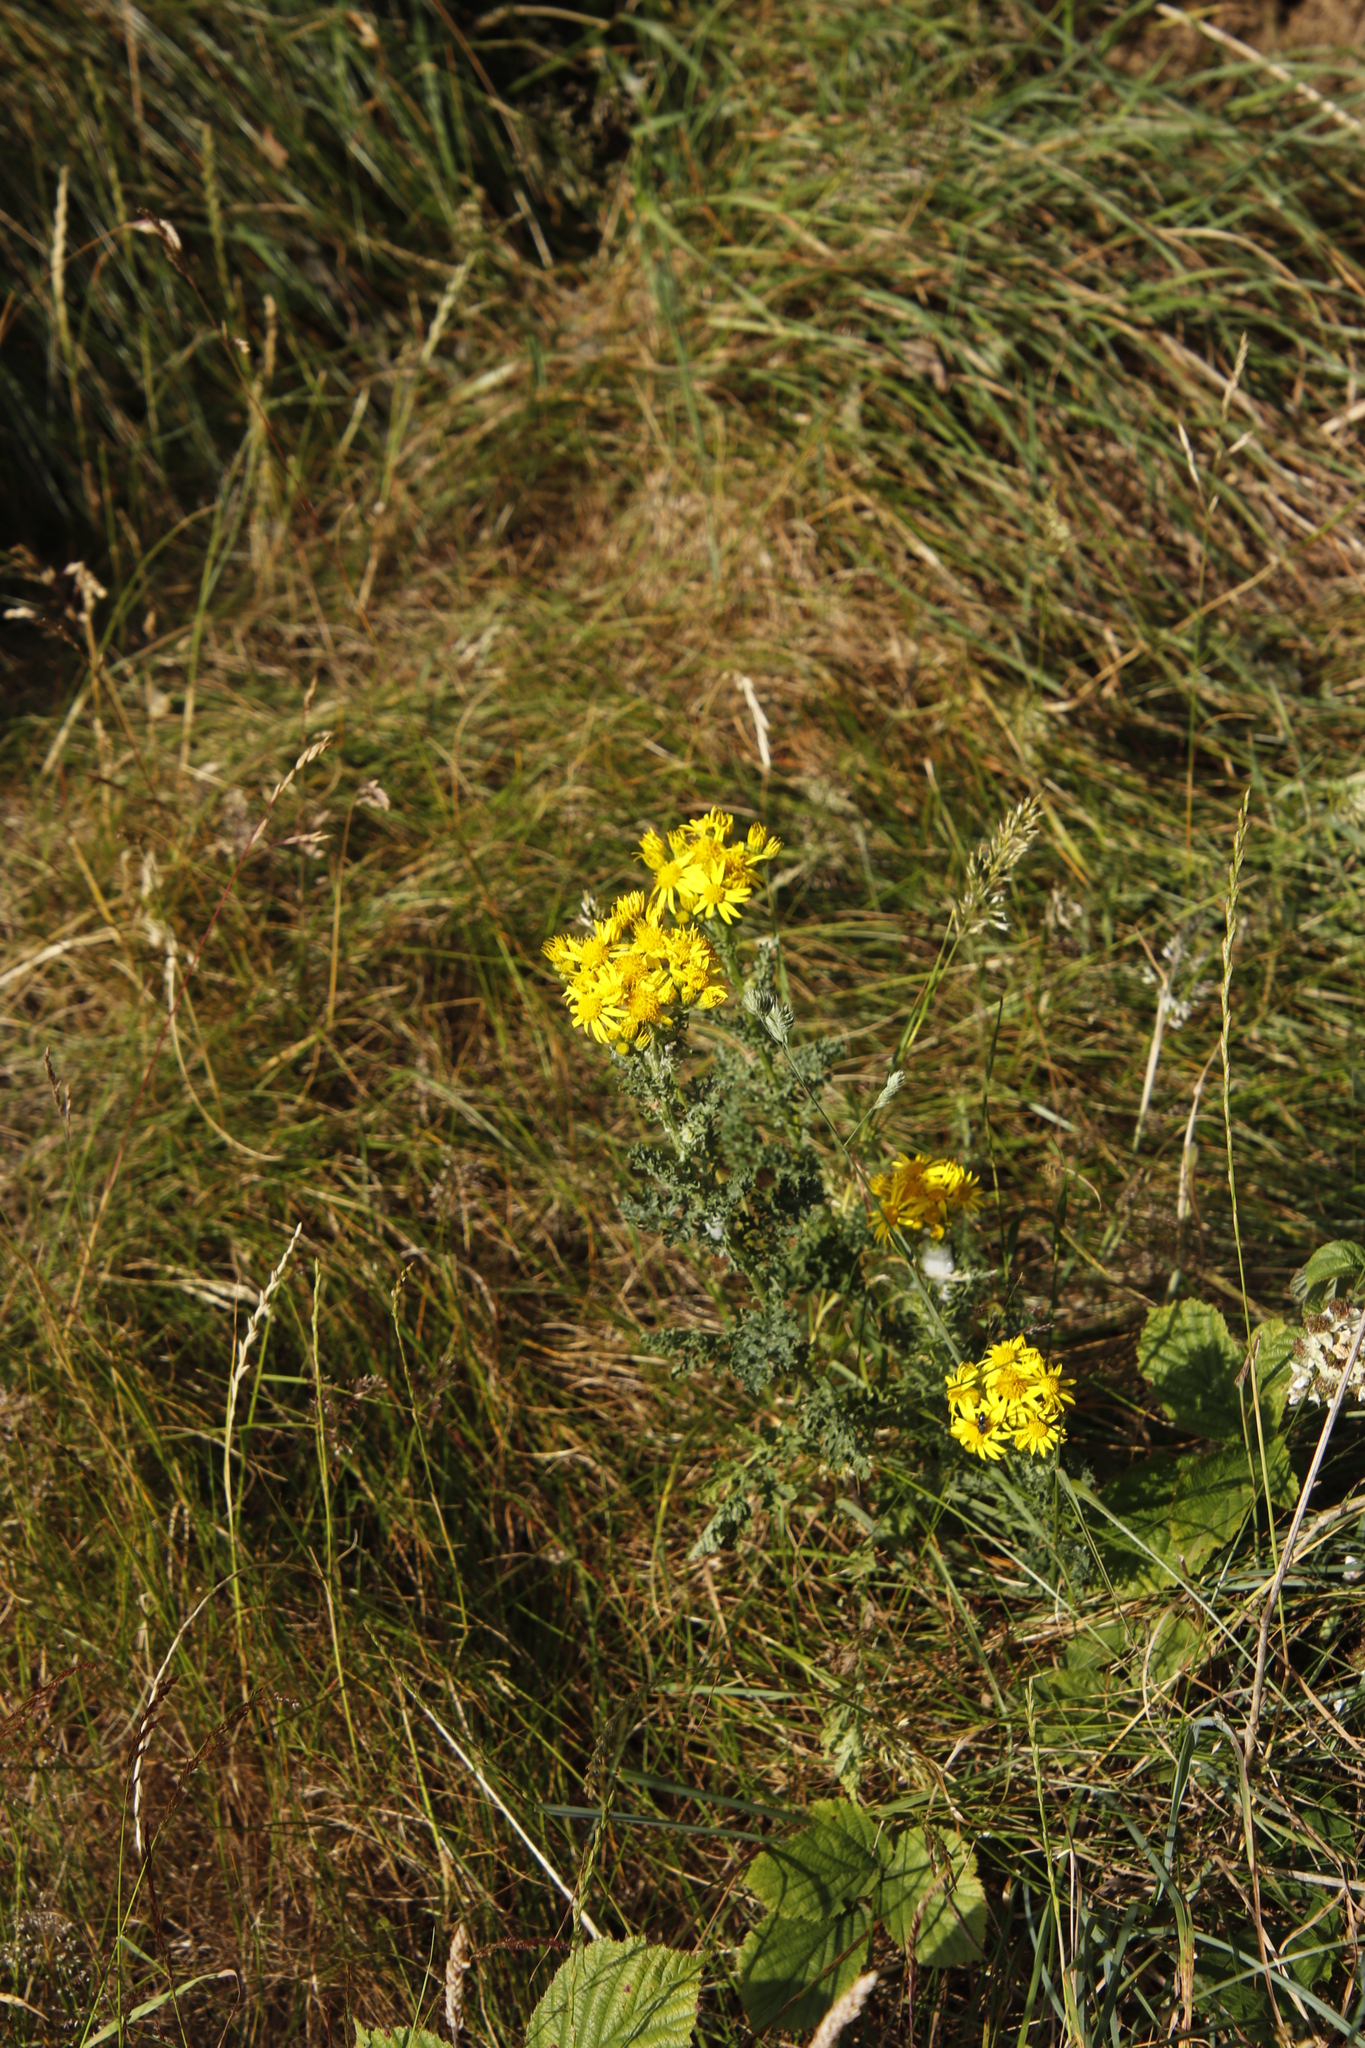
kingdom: Plantae
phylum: Tracheophyta
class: Magnoliopsida
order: Asterales
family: Asteraceae
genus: Jacobaea
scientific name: Jacobaea vulgaris
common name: Stinking willie
